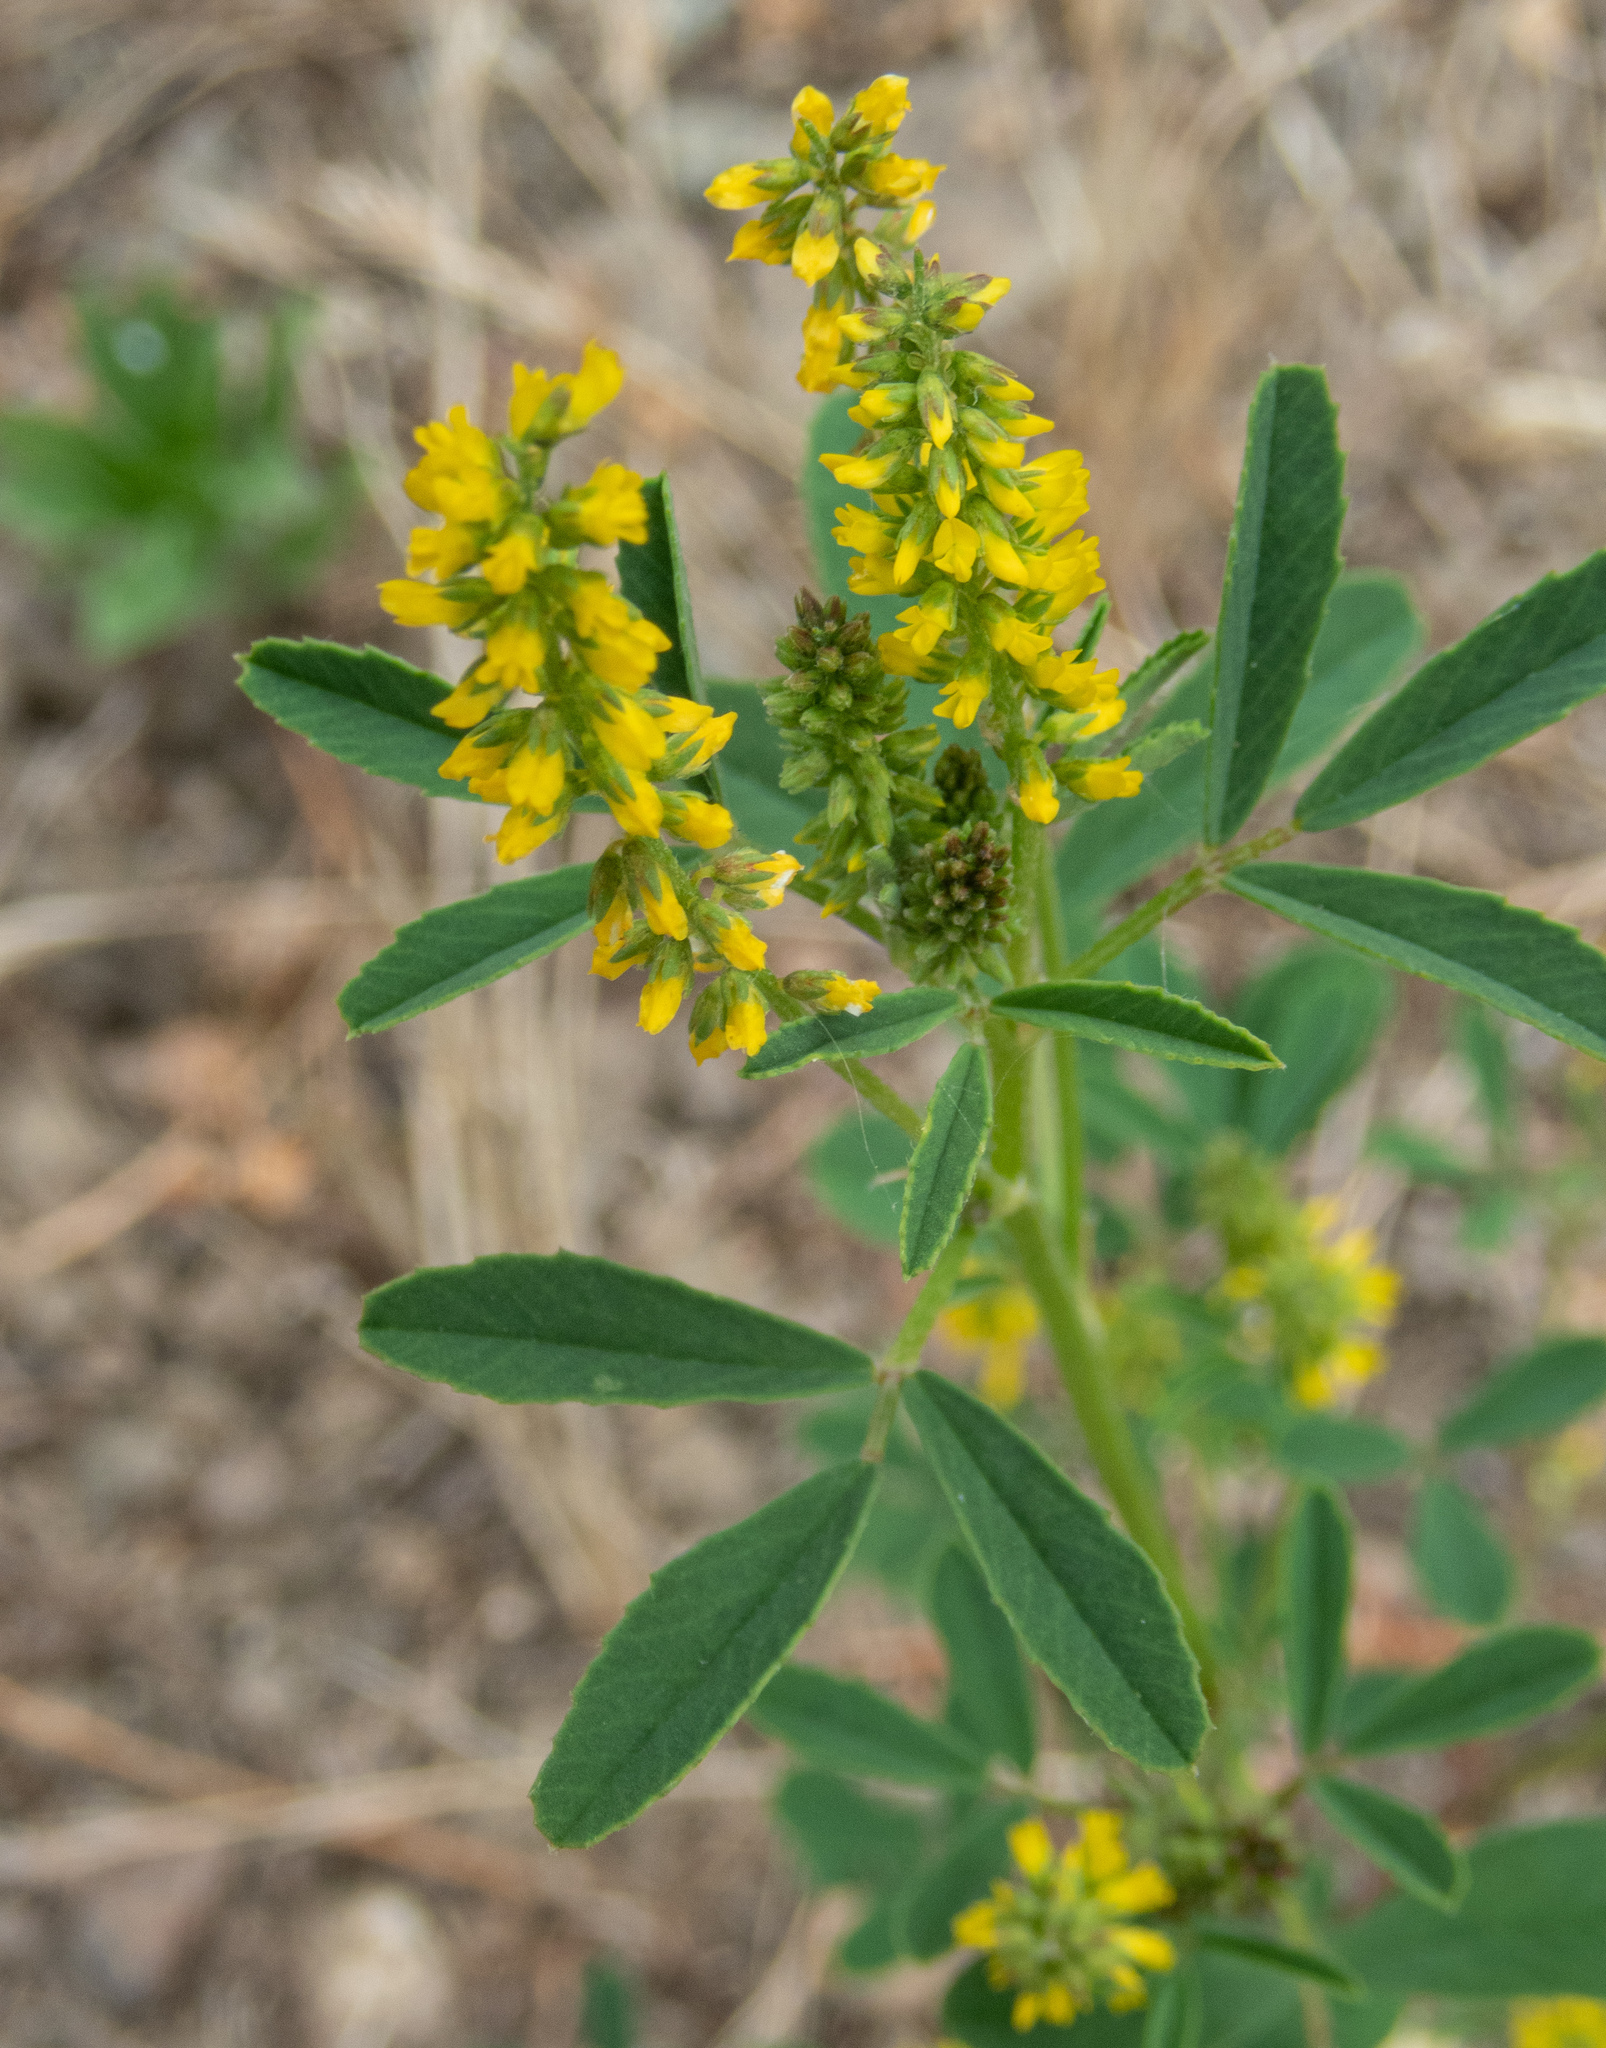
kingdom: Plantae
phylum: Tracheophyta
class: Magnoliopsida
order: Fabales
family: Fabaceae
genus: Melilotus
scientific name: Melilotus indicus
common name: Small melilot
